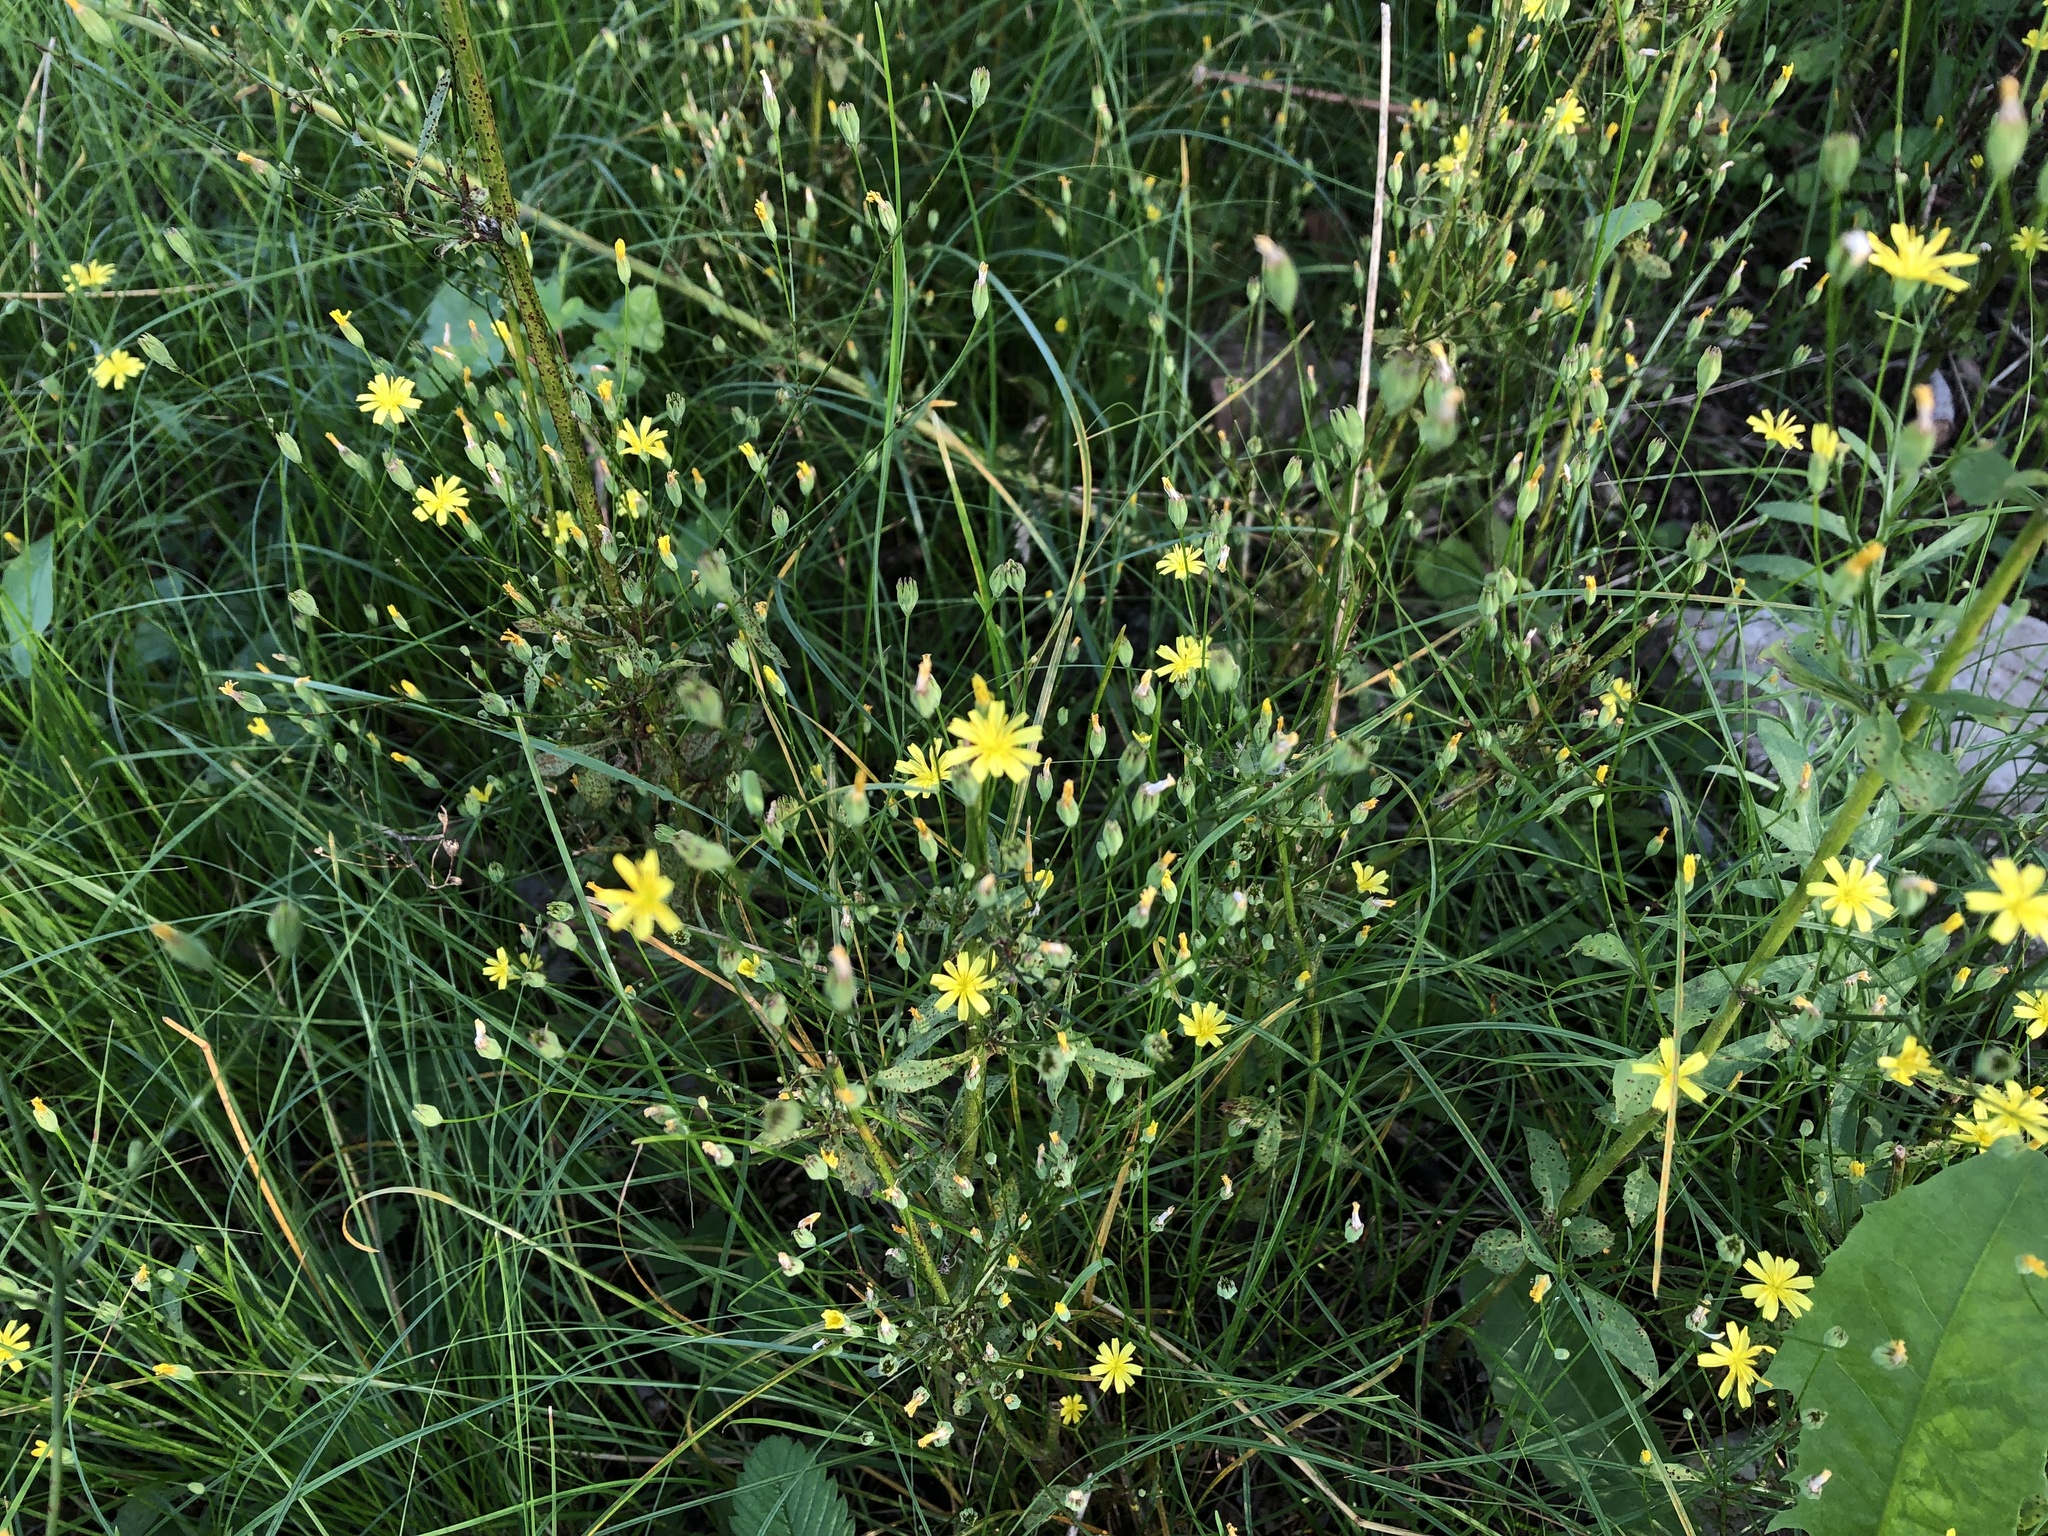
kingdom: Plantae
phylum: Tracheophyta
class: Magnoliopsida
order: Asterales
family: Asteraceae
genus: Lapsana
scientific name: Lapsana communis
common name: Nipplewort
